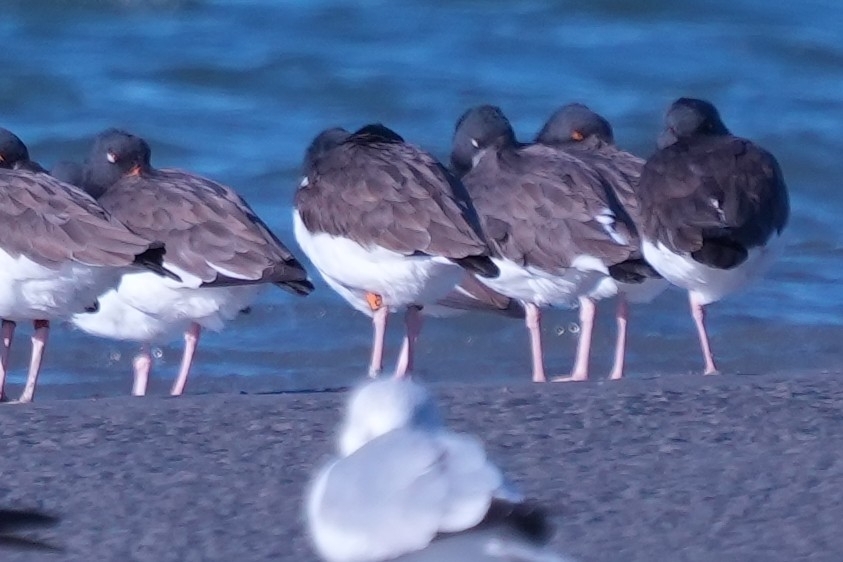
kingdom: Animalia
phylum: Chordata
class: Aves
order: Charadriiformes
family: Haematopodidae
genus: Haematopus
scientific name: Haematopus palliatus
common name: American oystercatcher
